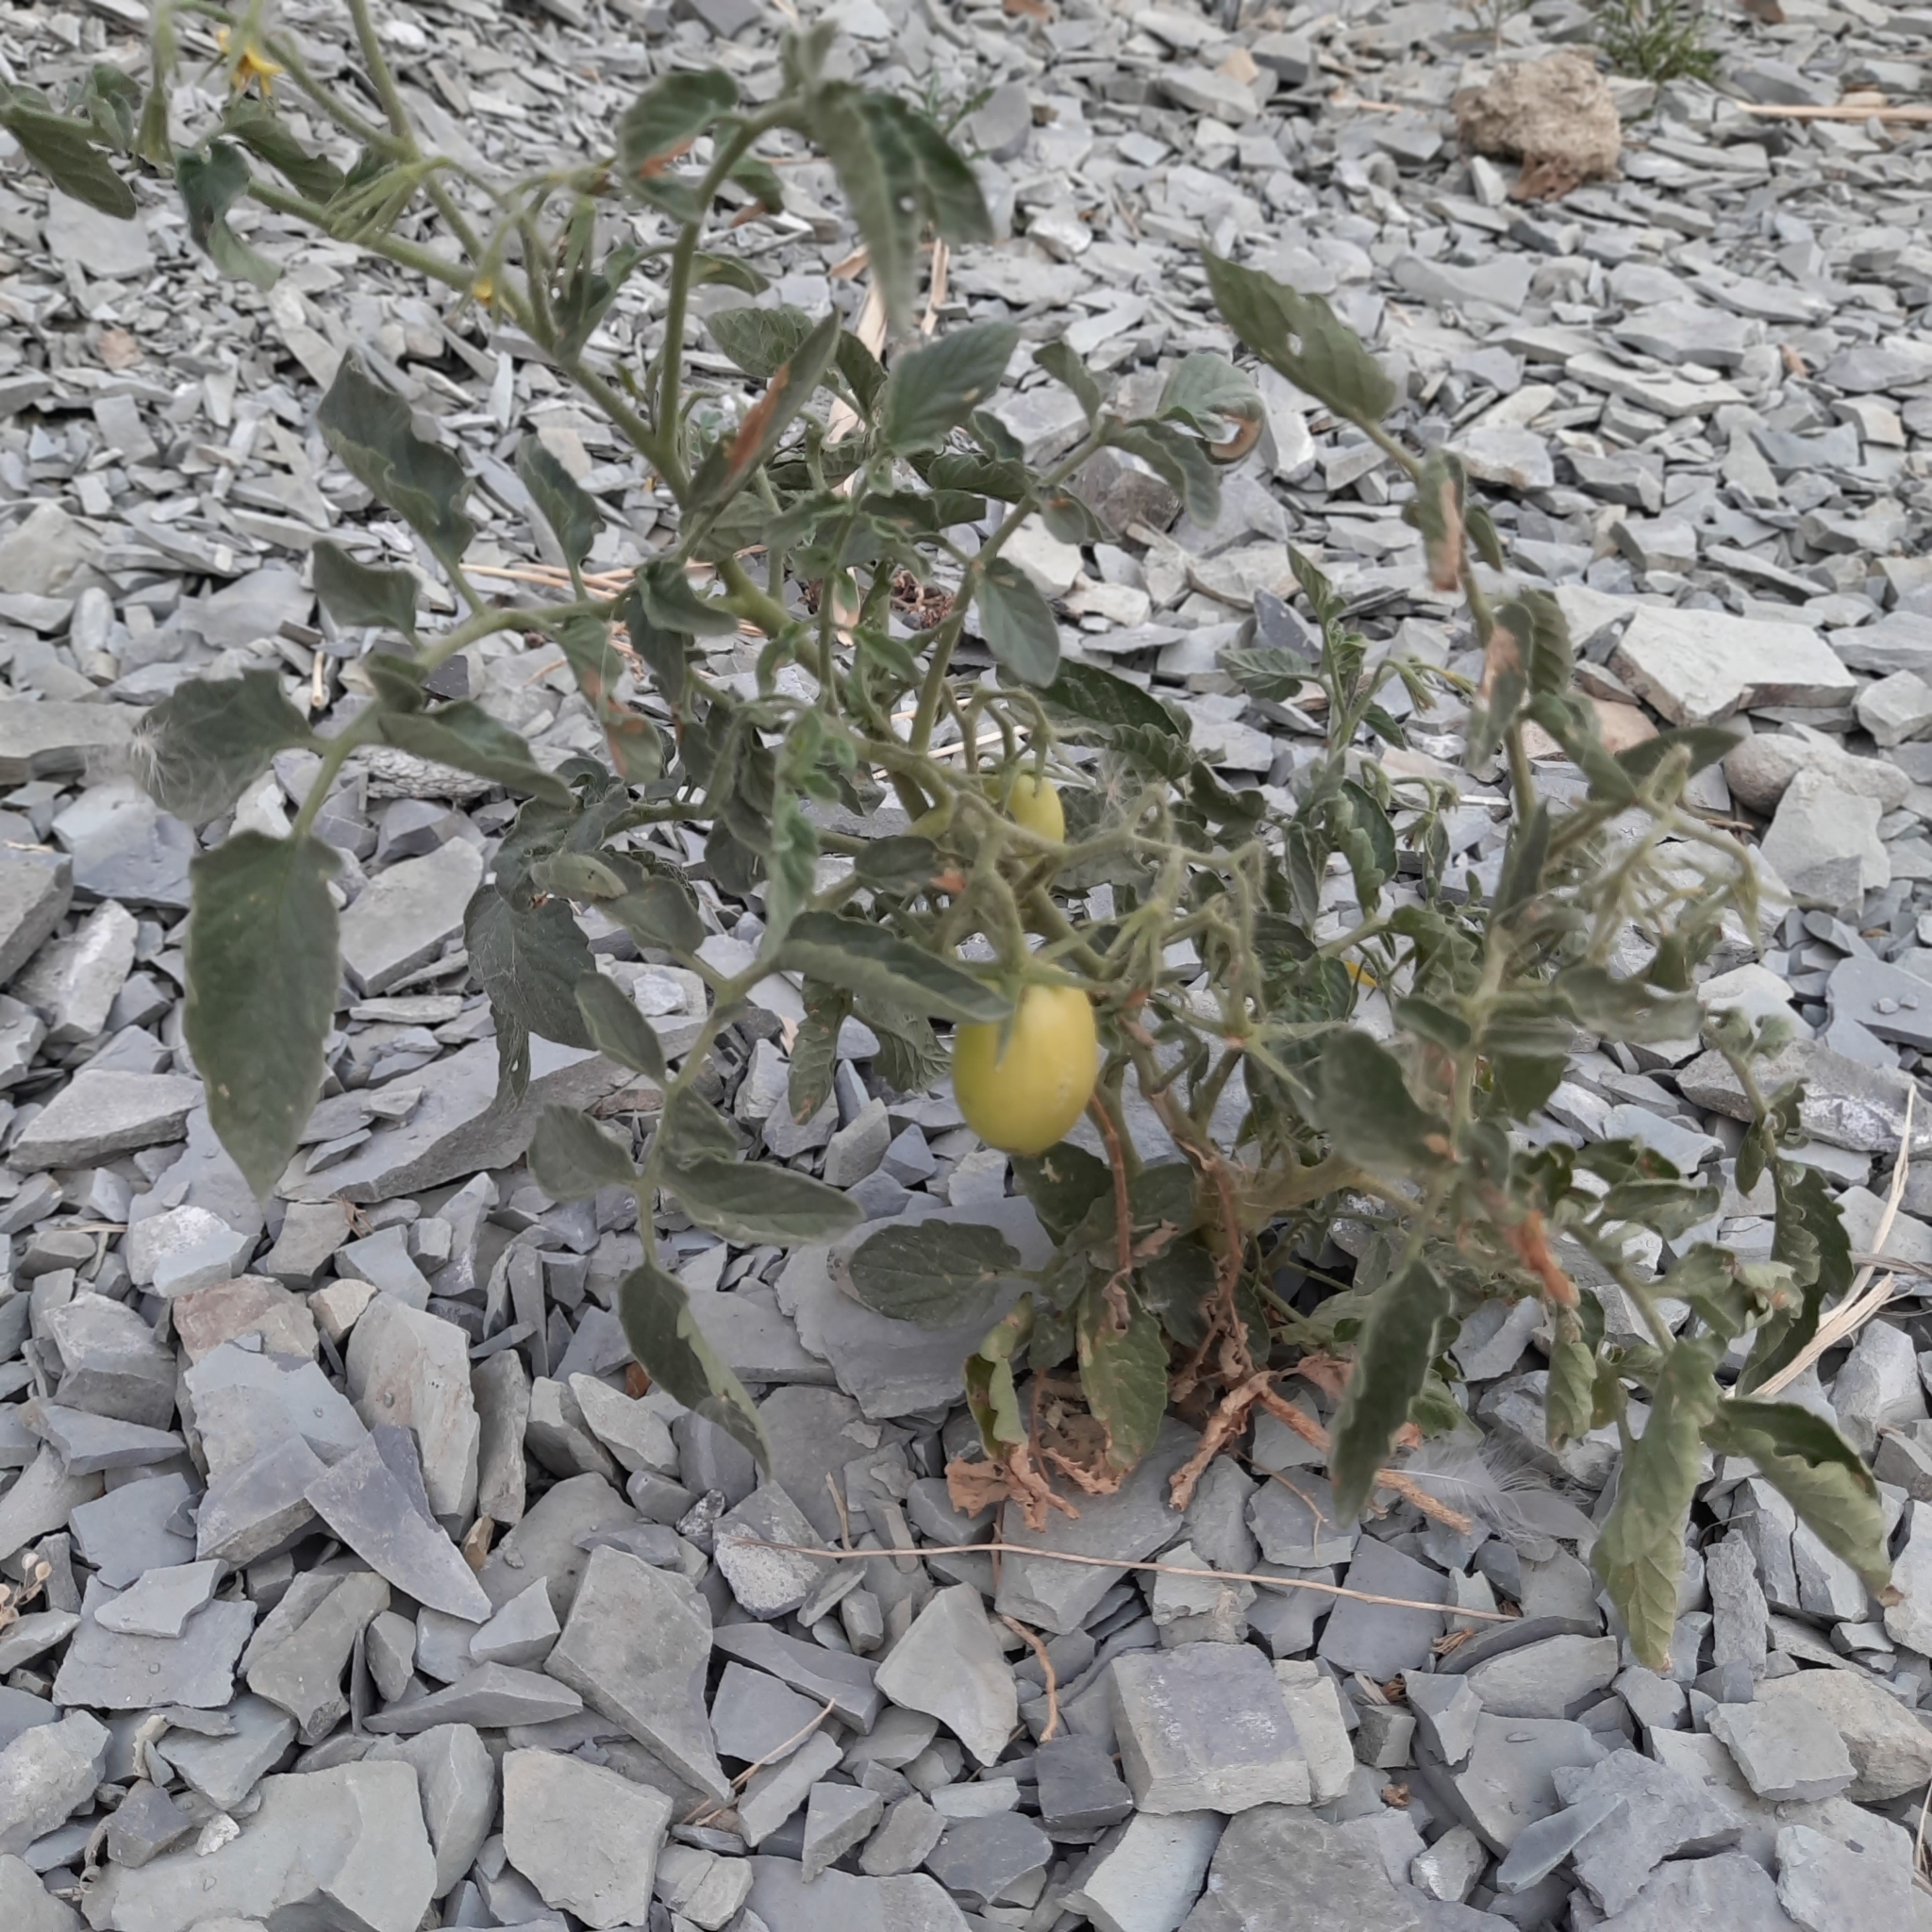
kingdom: Plantae
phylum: Tracheophyta
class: Magnoliopsida
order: Solanales
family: Solanaceae
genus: Solanum
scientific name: Solanum lycopersicum
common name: Garden tomato
